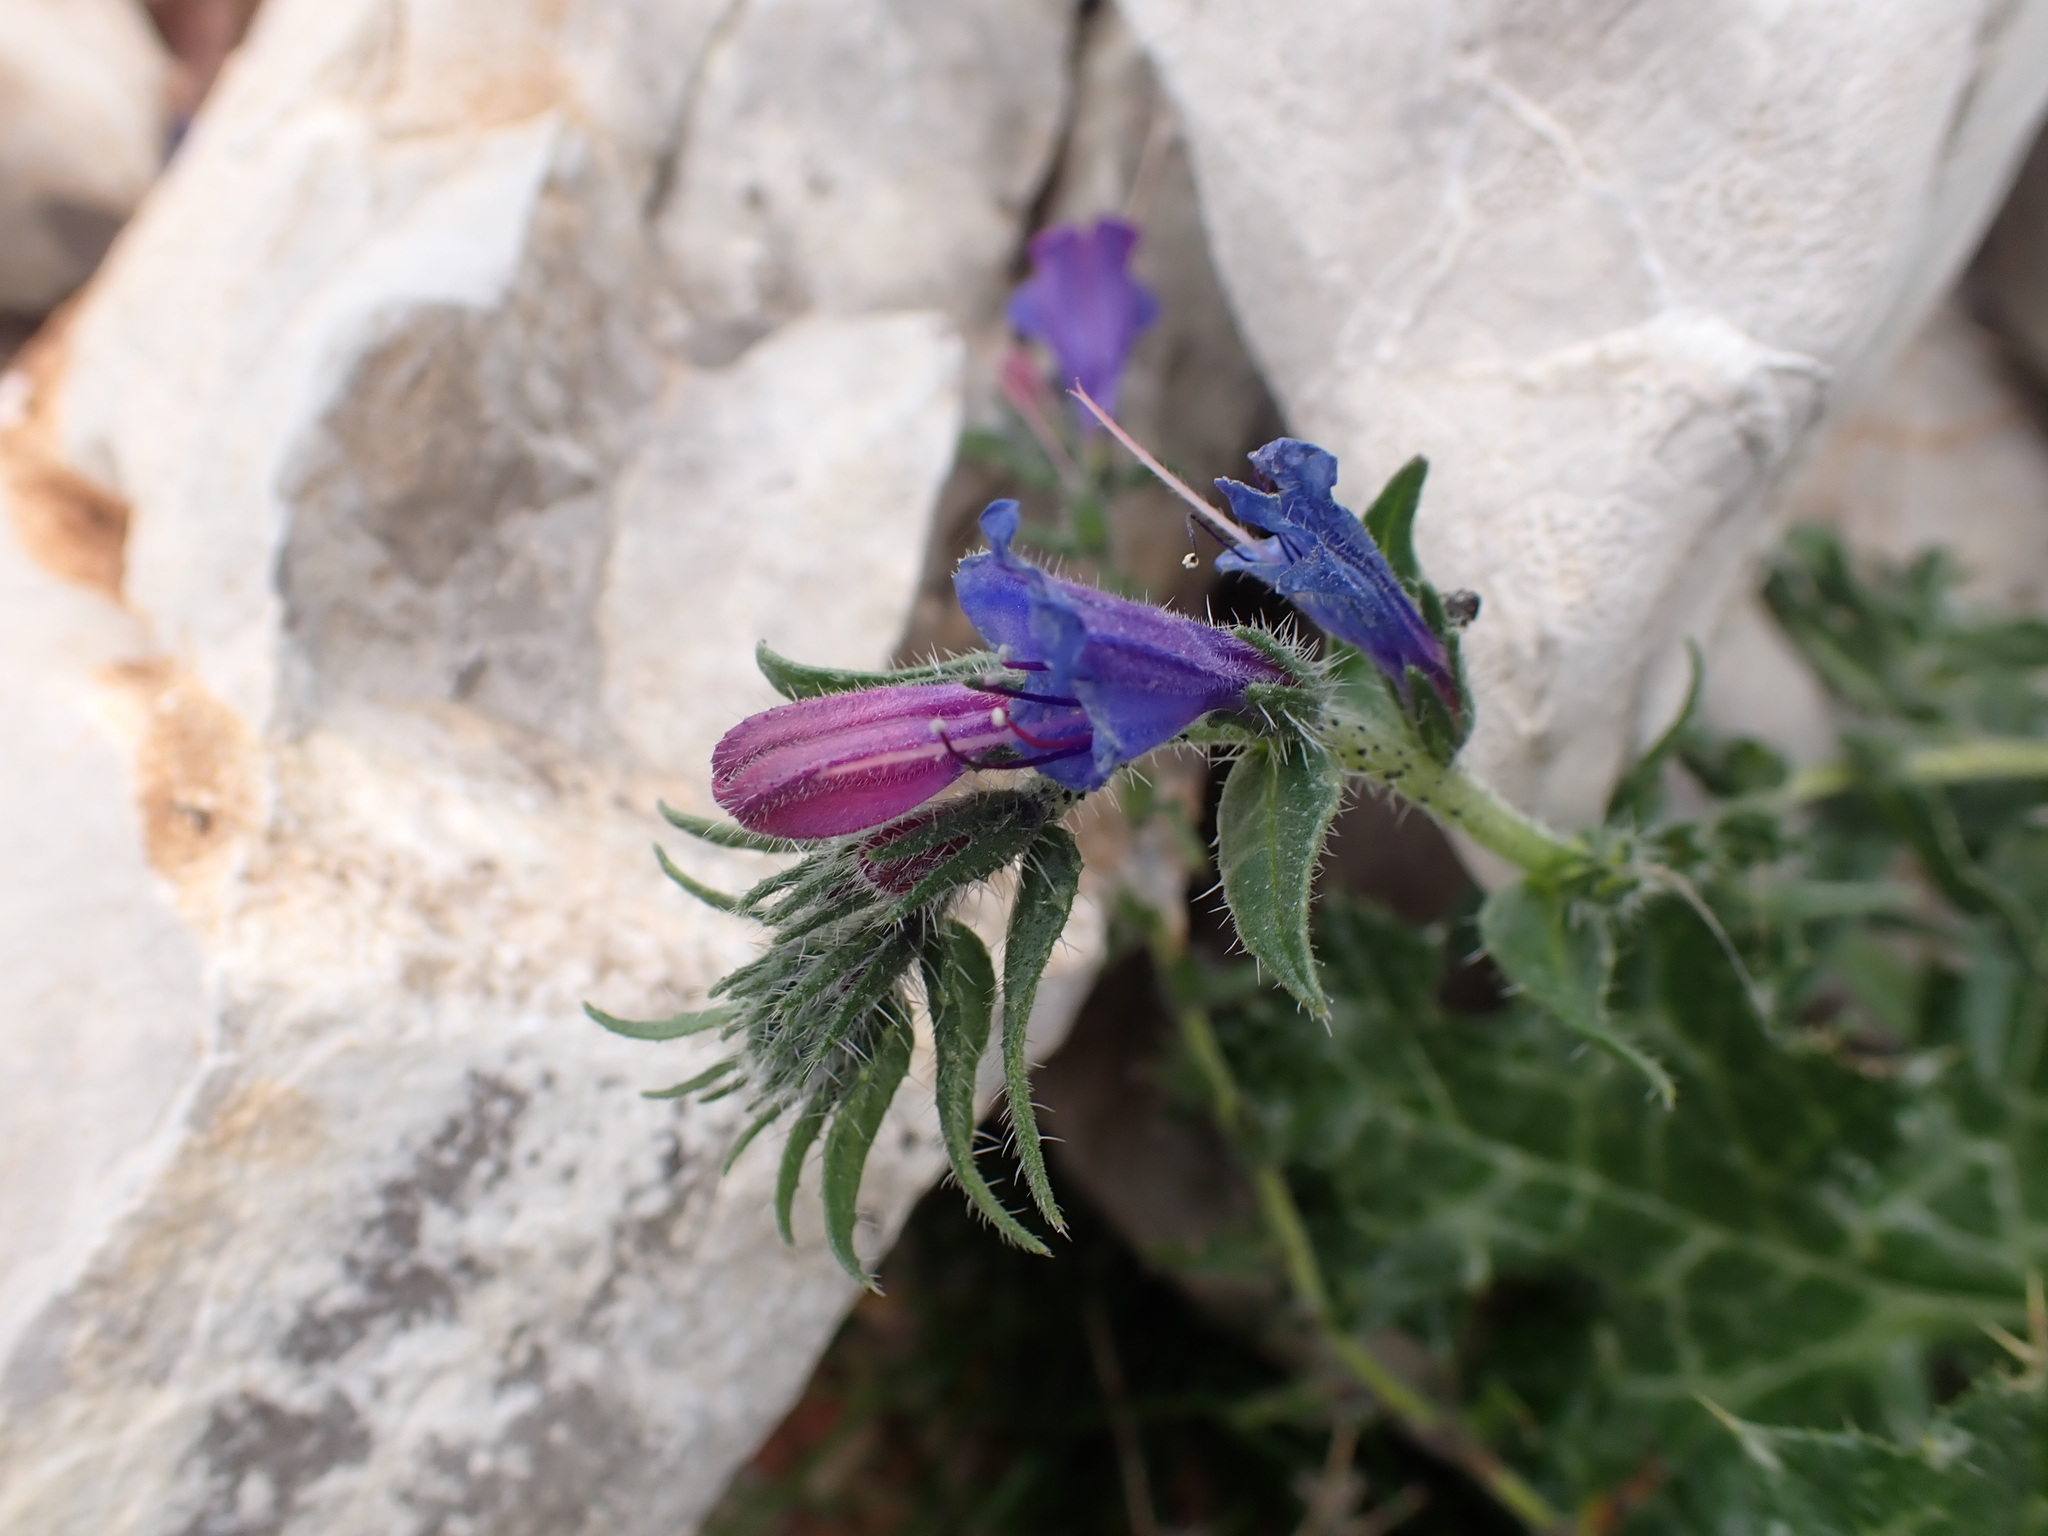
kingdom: Plantae
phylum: Tracheophyta
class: Magnoliopsida
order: Boraginales
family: Boraginaceae
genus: Echium
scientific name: Echium vulgare
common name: Common viper's bugloss
